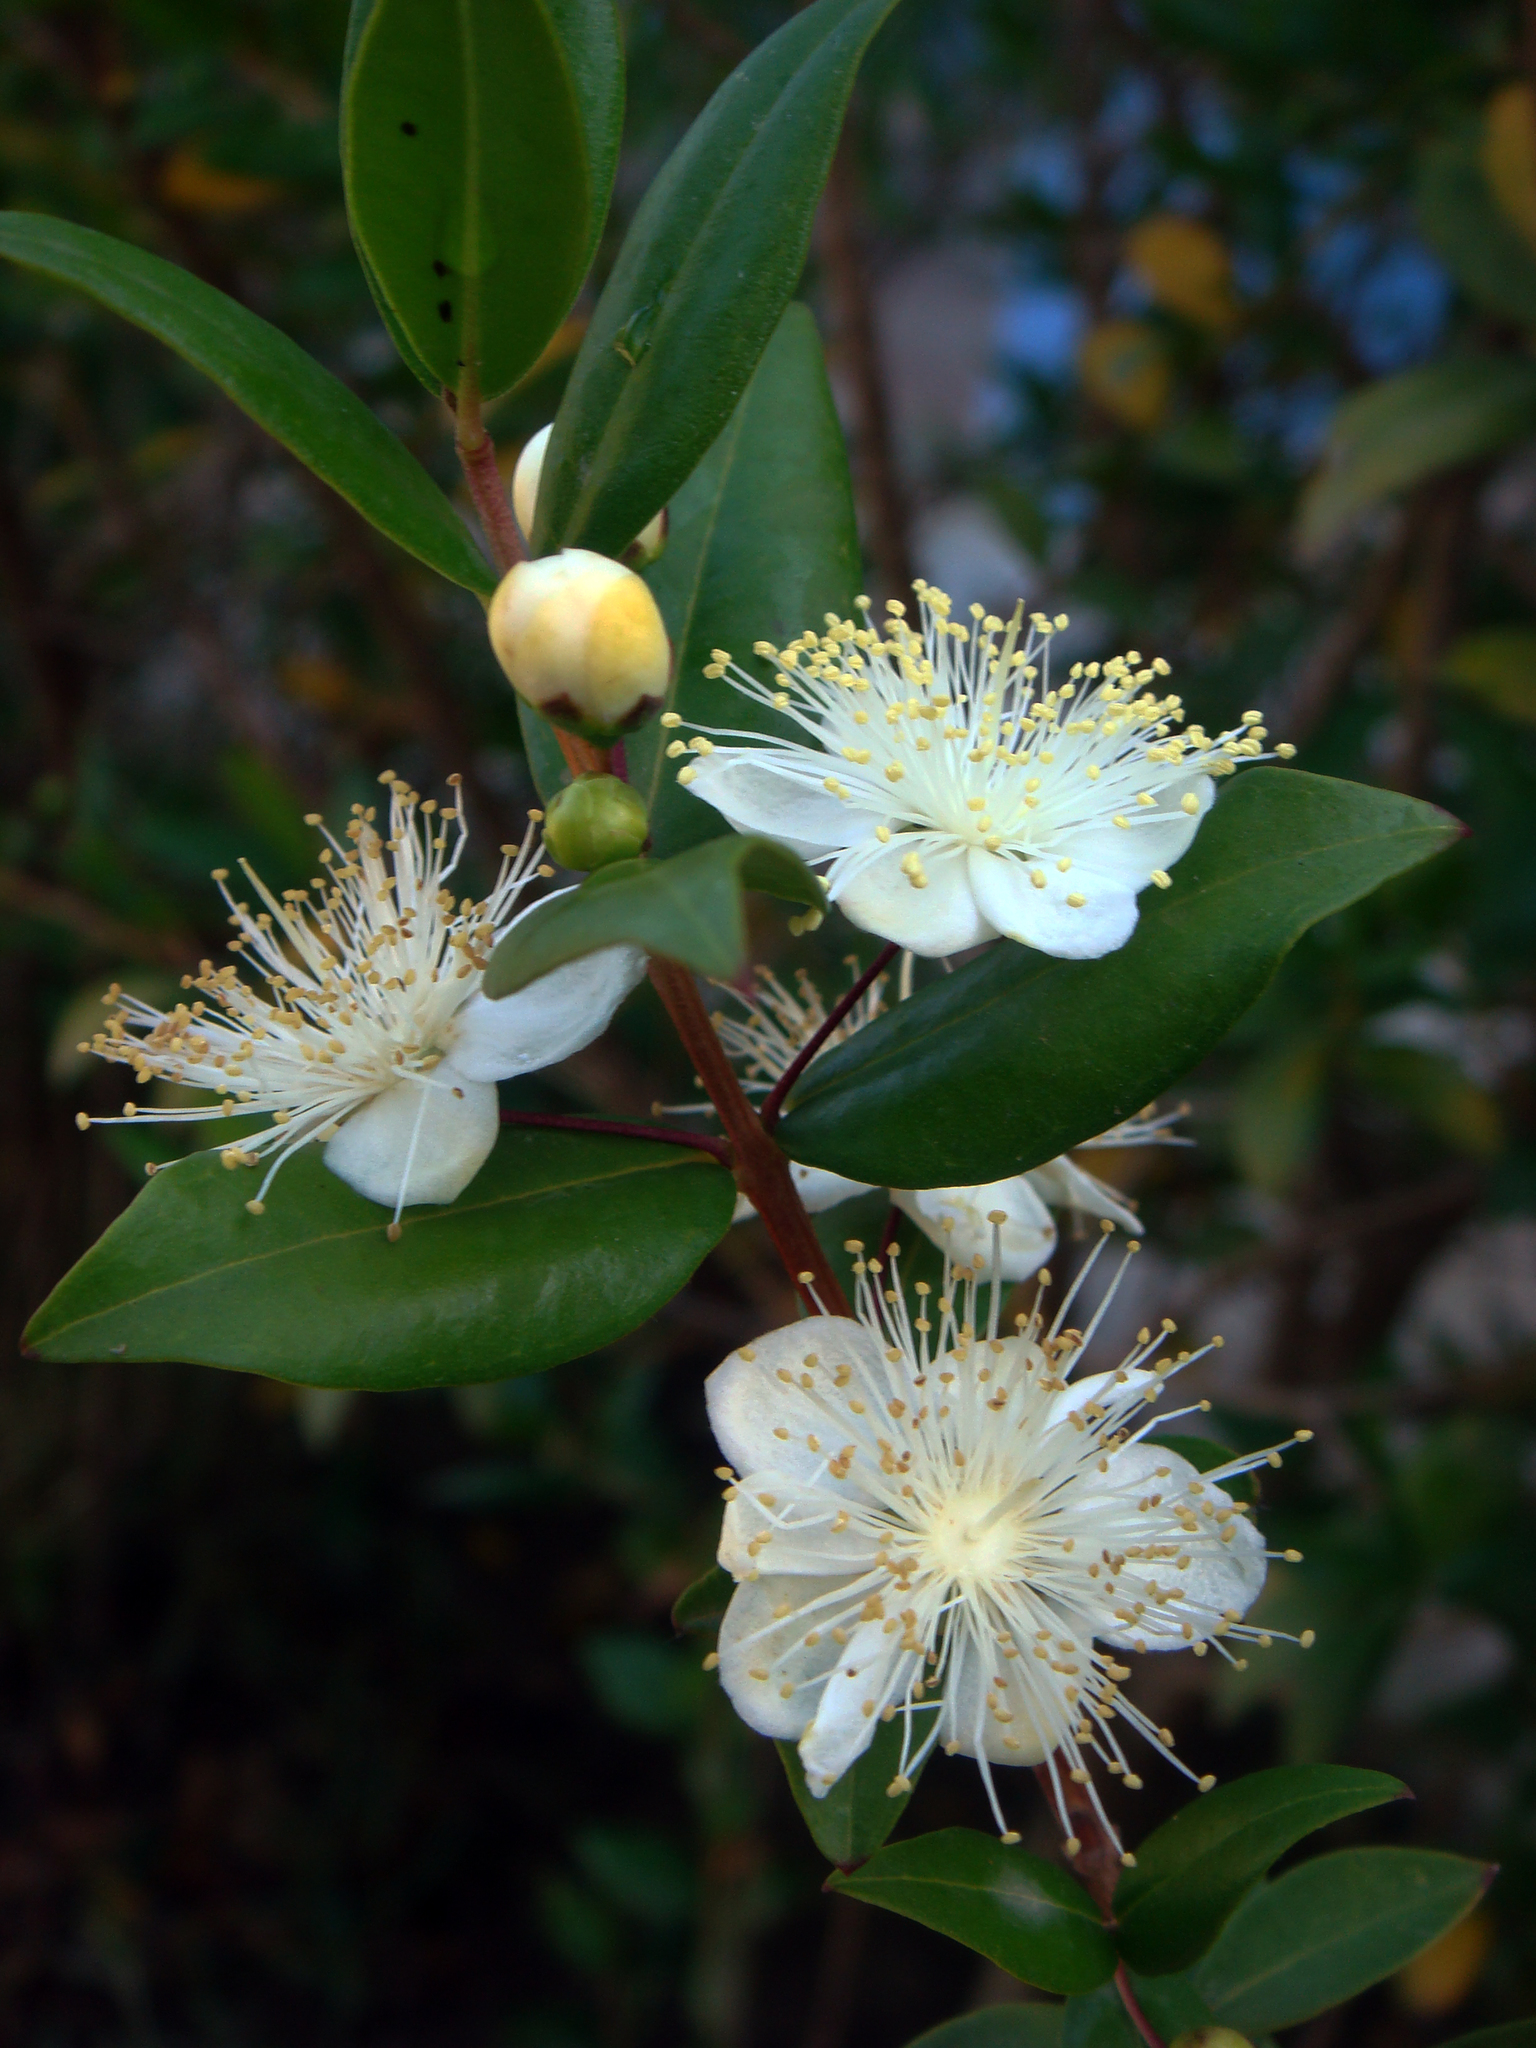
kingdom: Plantae
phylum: Tracheophyta
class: Magnoliopsida
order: Myrtales
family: Myrtaceae
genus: Myrtus
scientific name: Myrtus communis
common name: Myrtle
